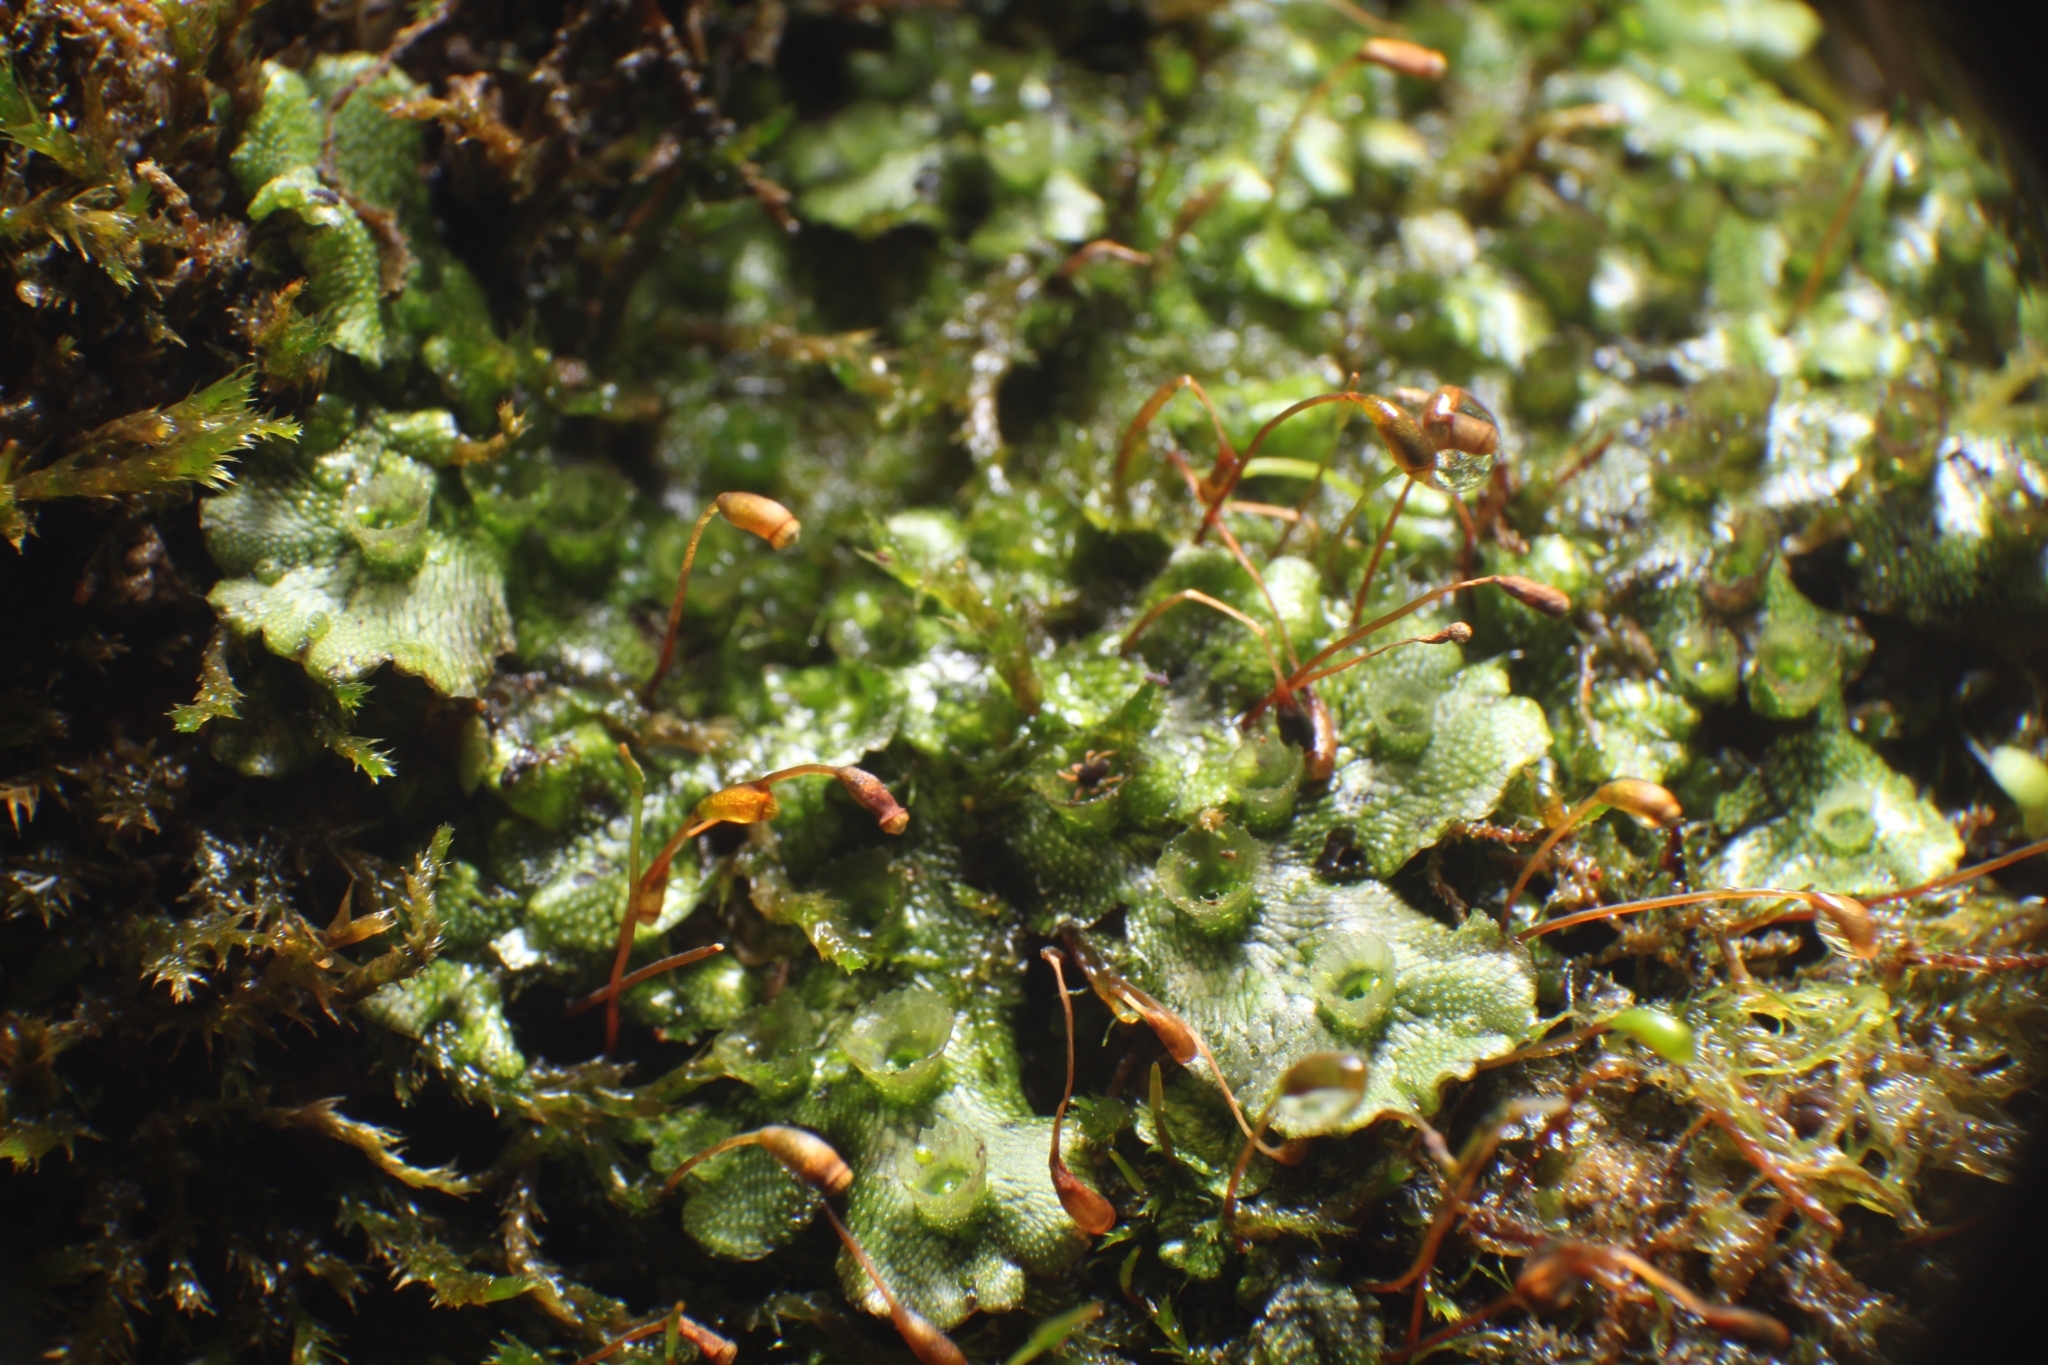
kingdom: Plantae
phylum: Marchantiophyta
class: Marchantiopsida
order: Marchantiales
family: Marchantiaceae
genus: Marchantia
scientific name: Marchantia polymorpha
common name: Common liverwort
